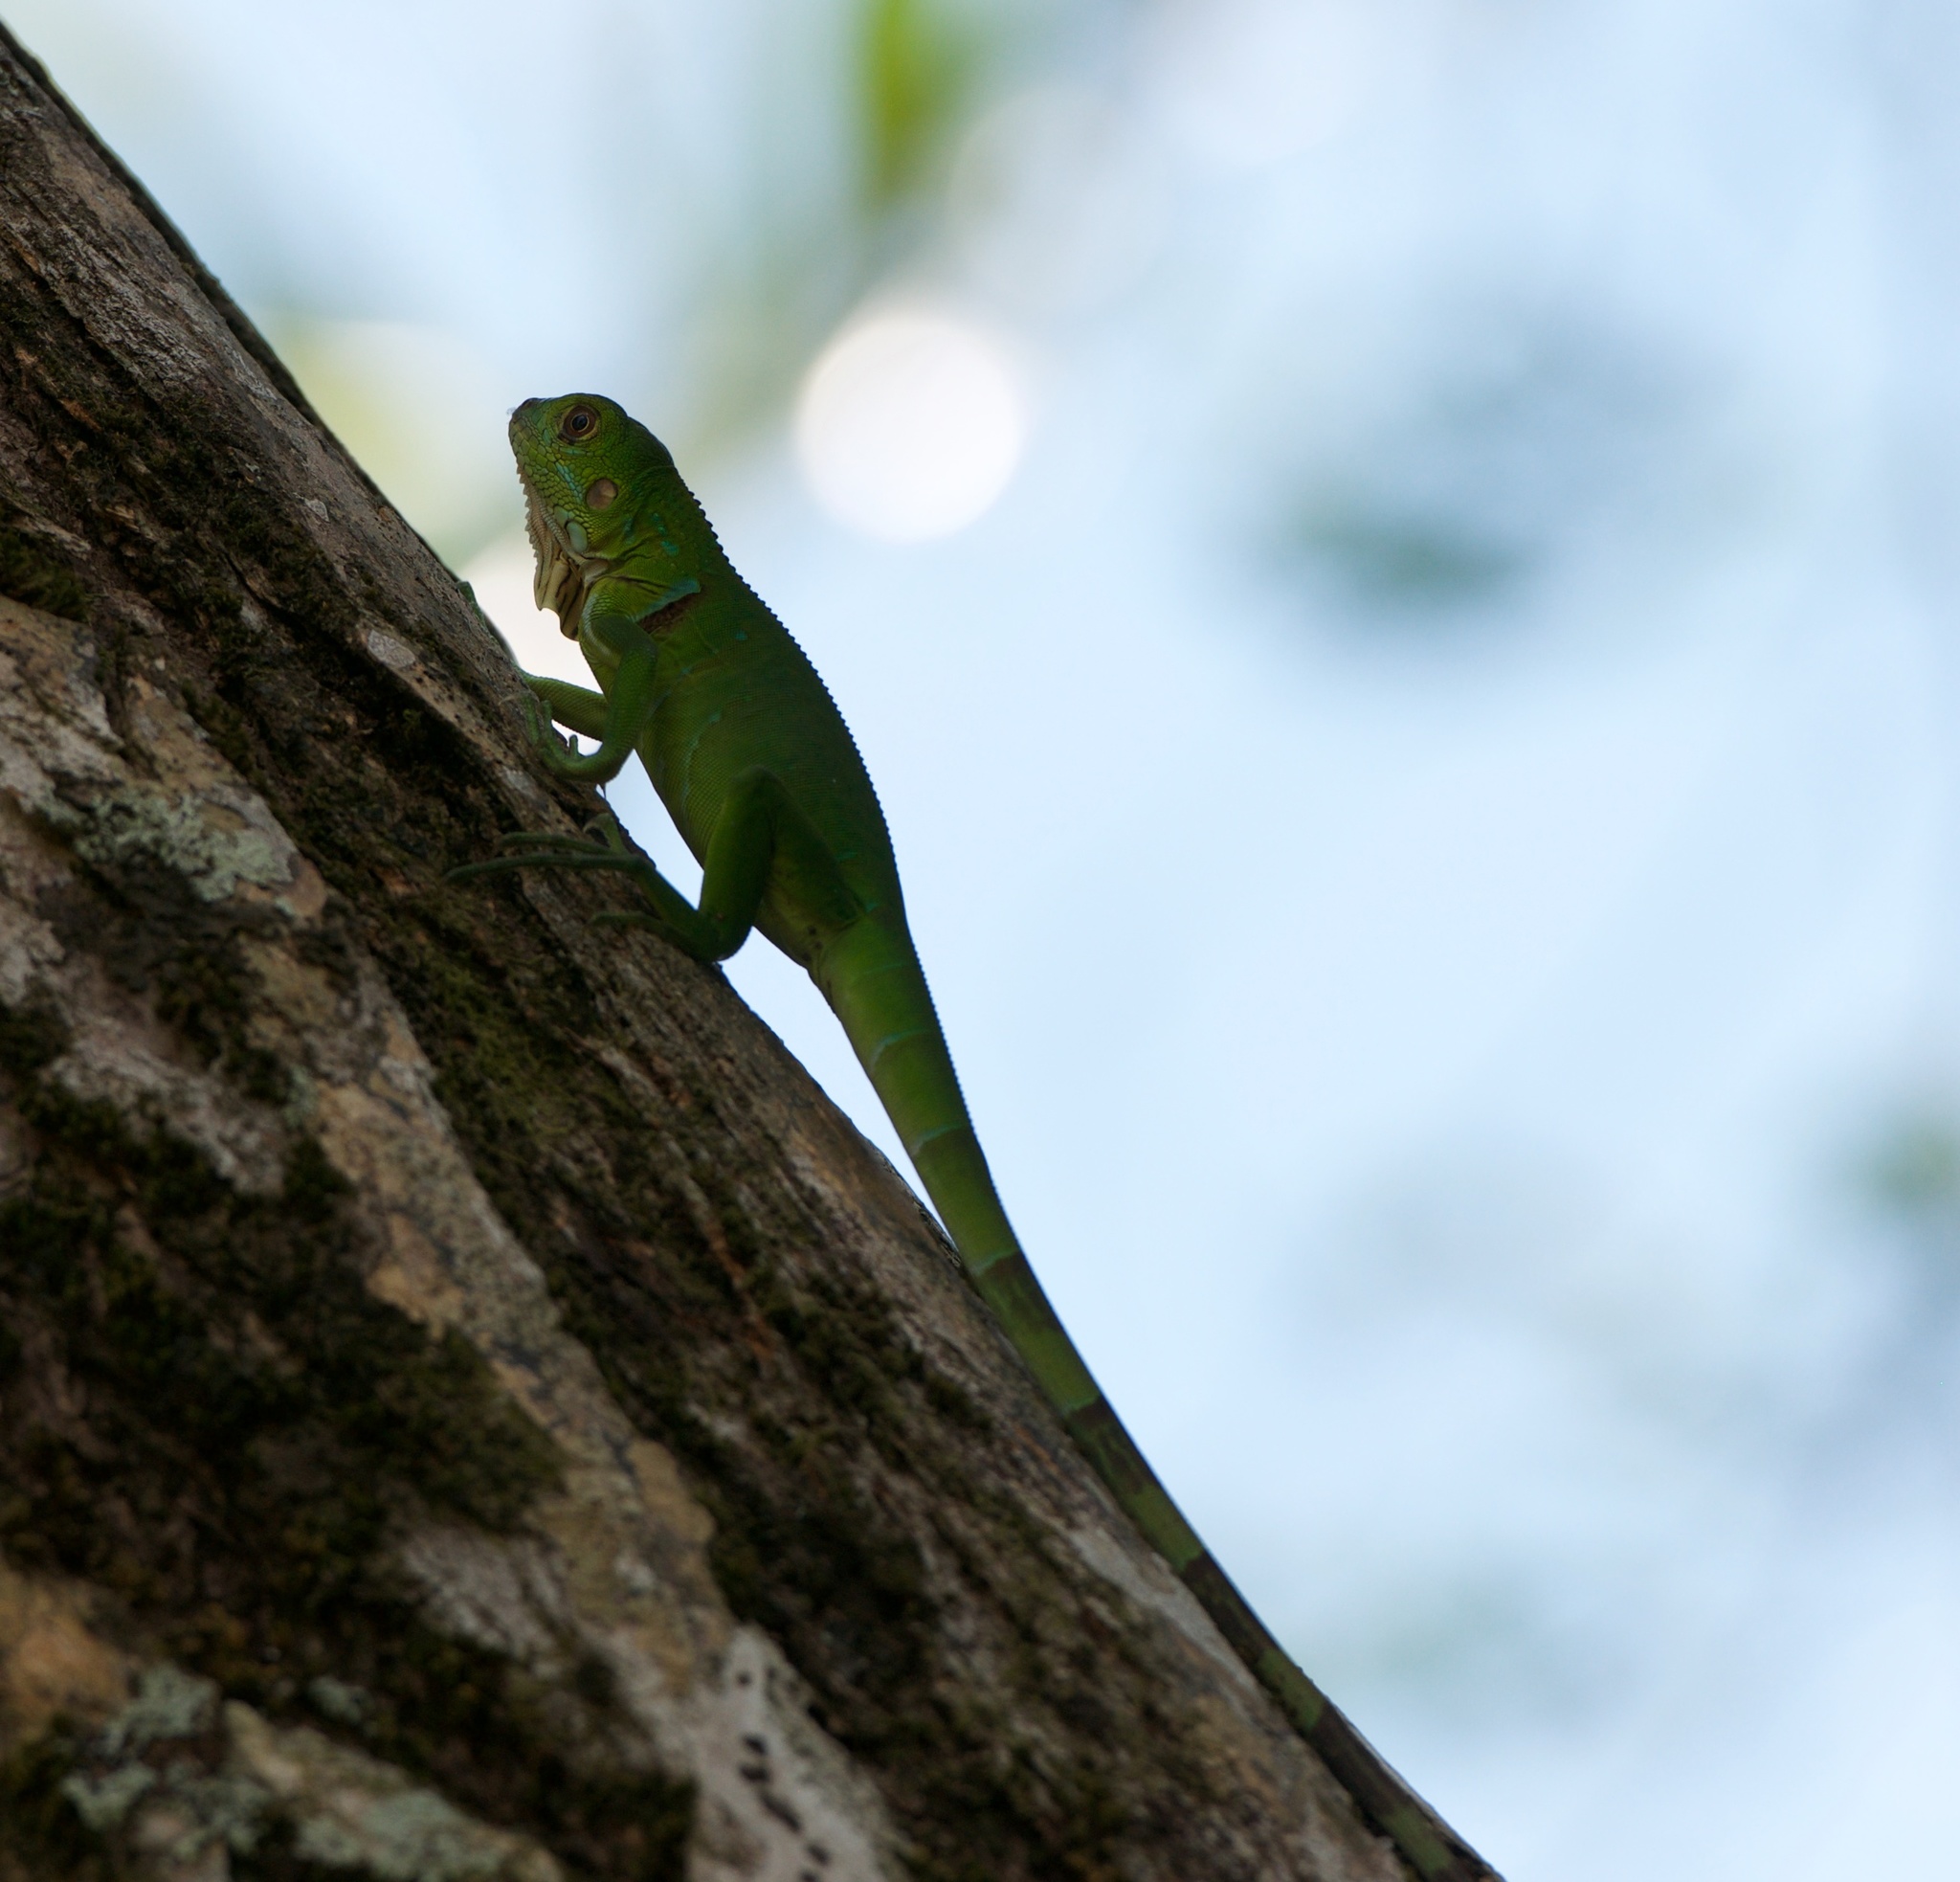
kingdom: Animalia
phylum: Chordata
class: Squamata
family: Iguanidae
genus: Iguana
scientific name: Iguana iguana
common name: Green iguana
